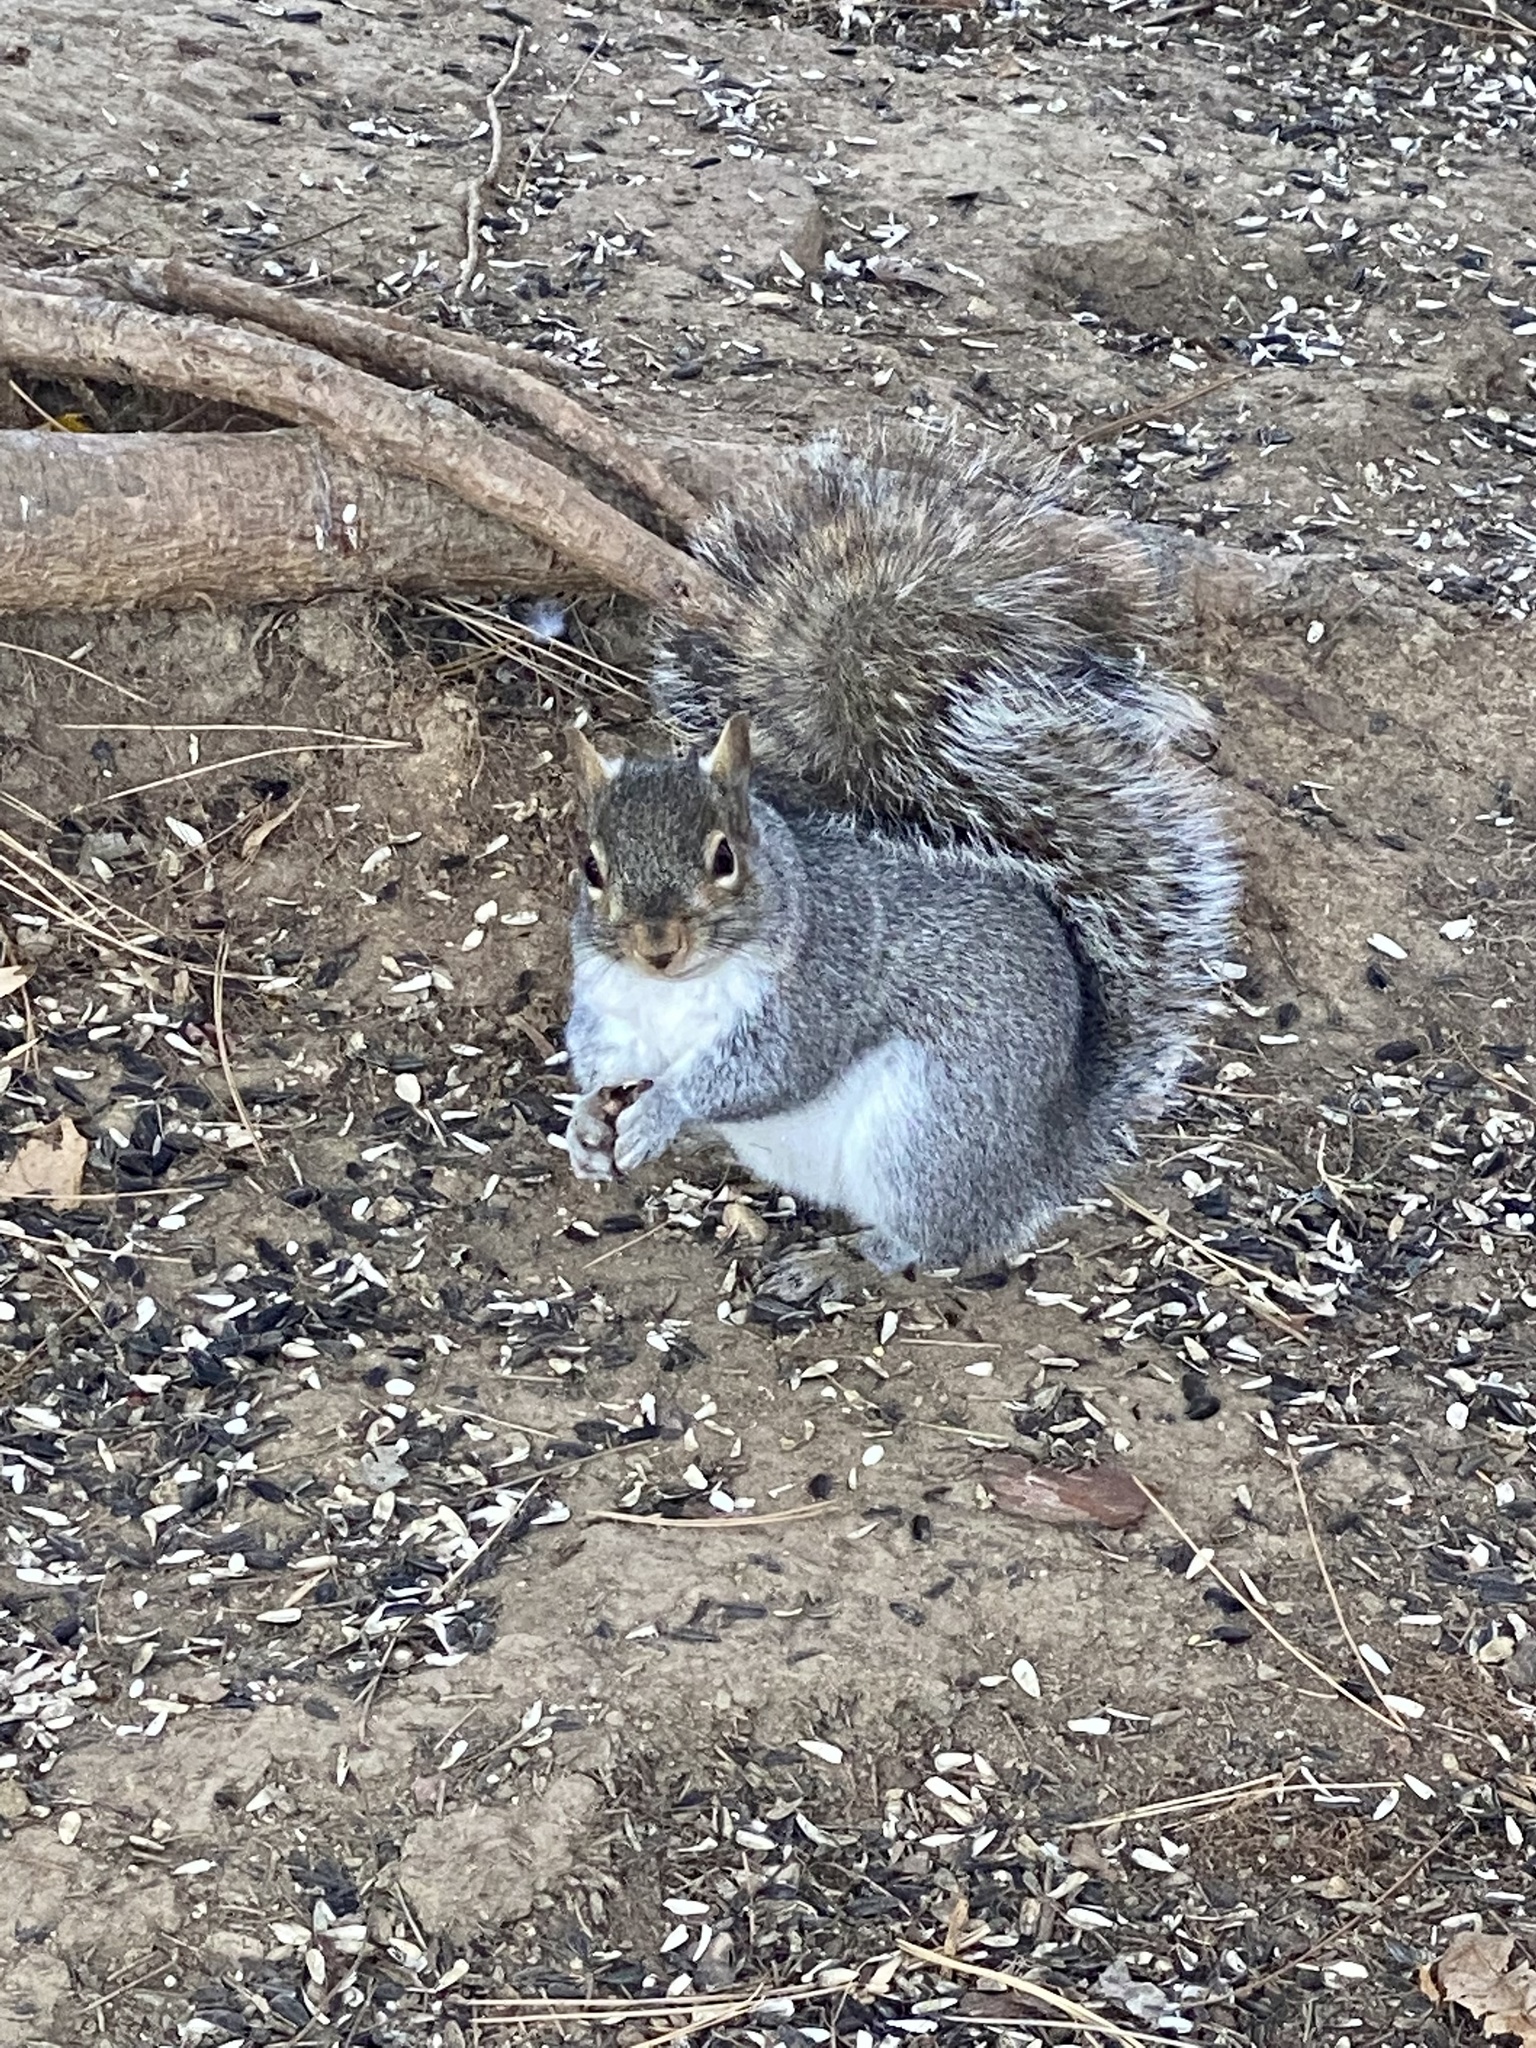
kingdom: Animalia
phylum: Chordata
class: Mammalia
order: Rodentia
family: Sciuridae
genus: Sciurus
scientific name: Sciurus carolinensis
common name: Eastern gray squirrel
